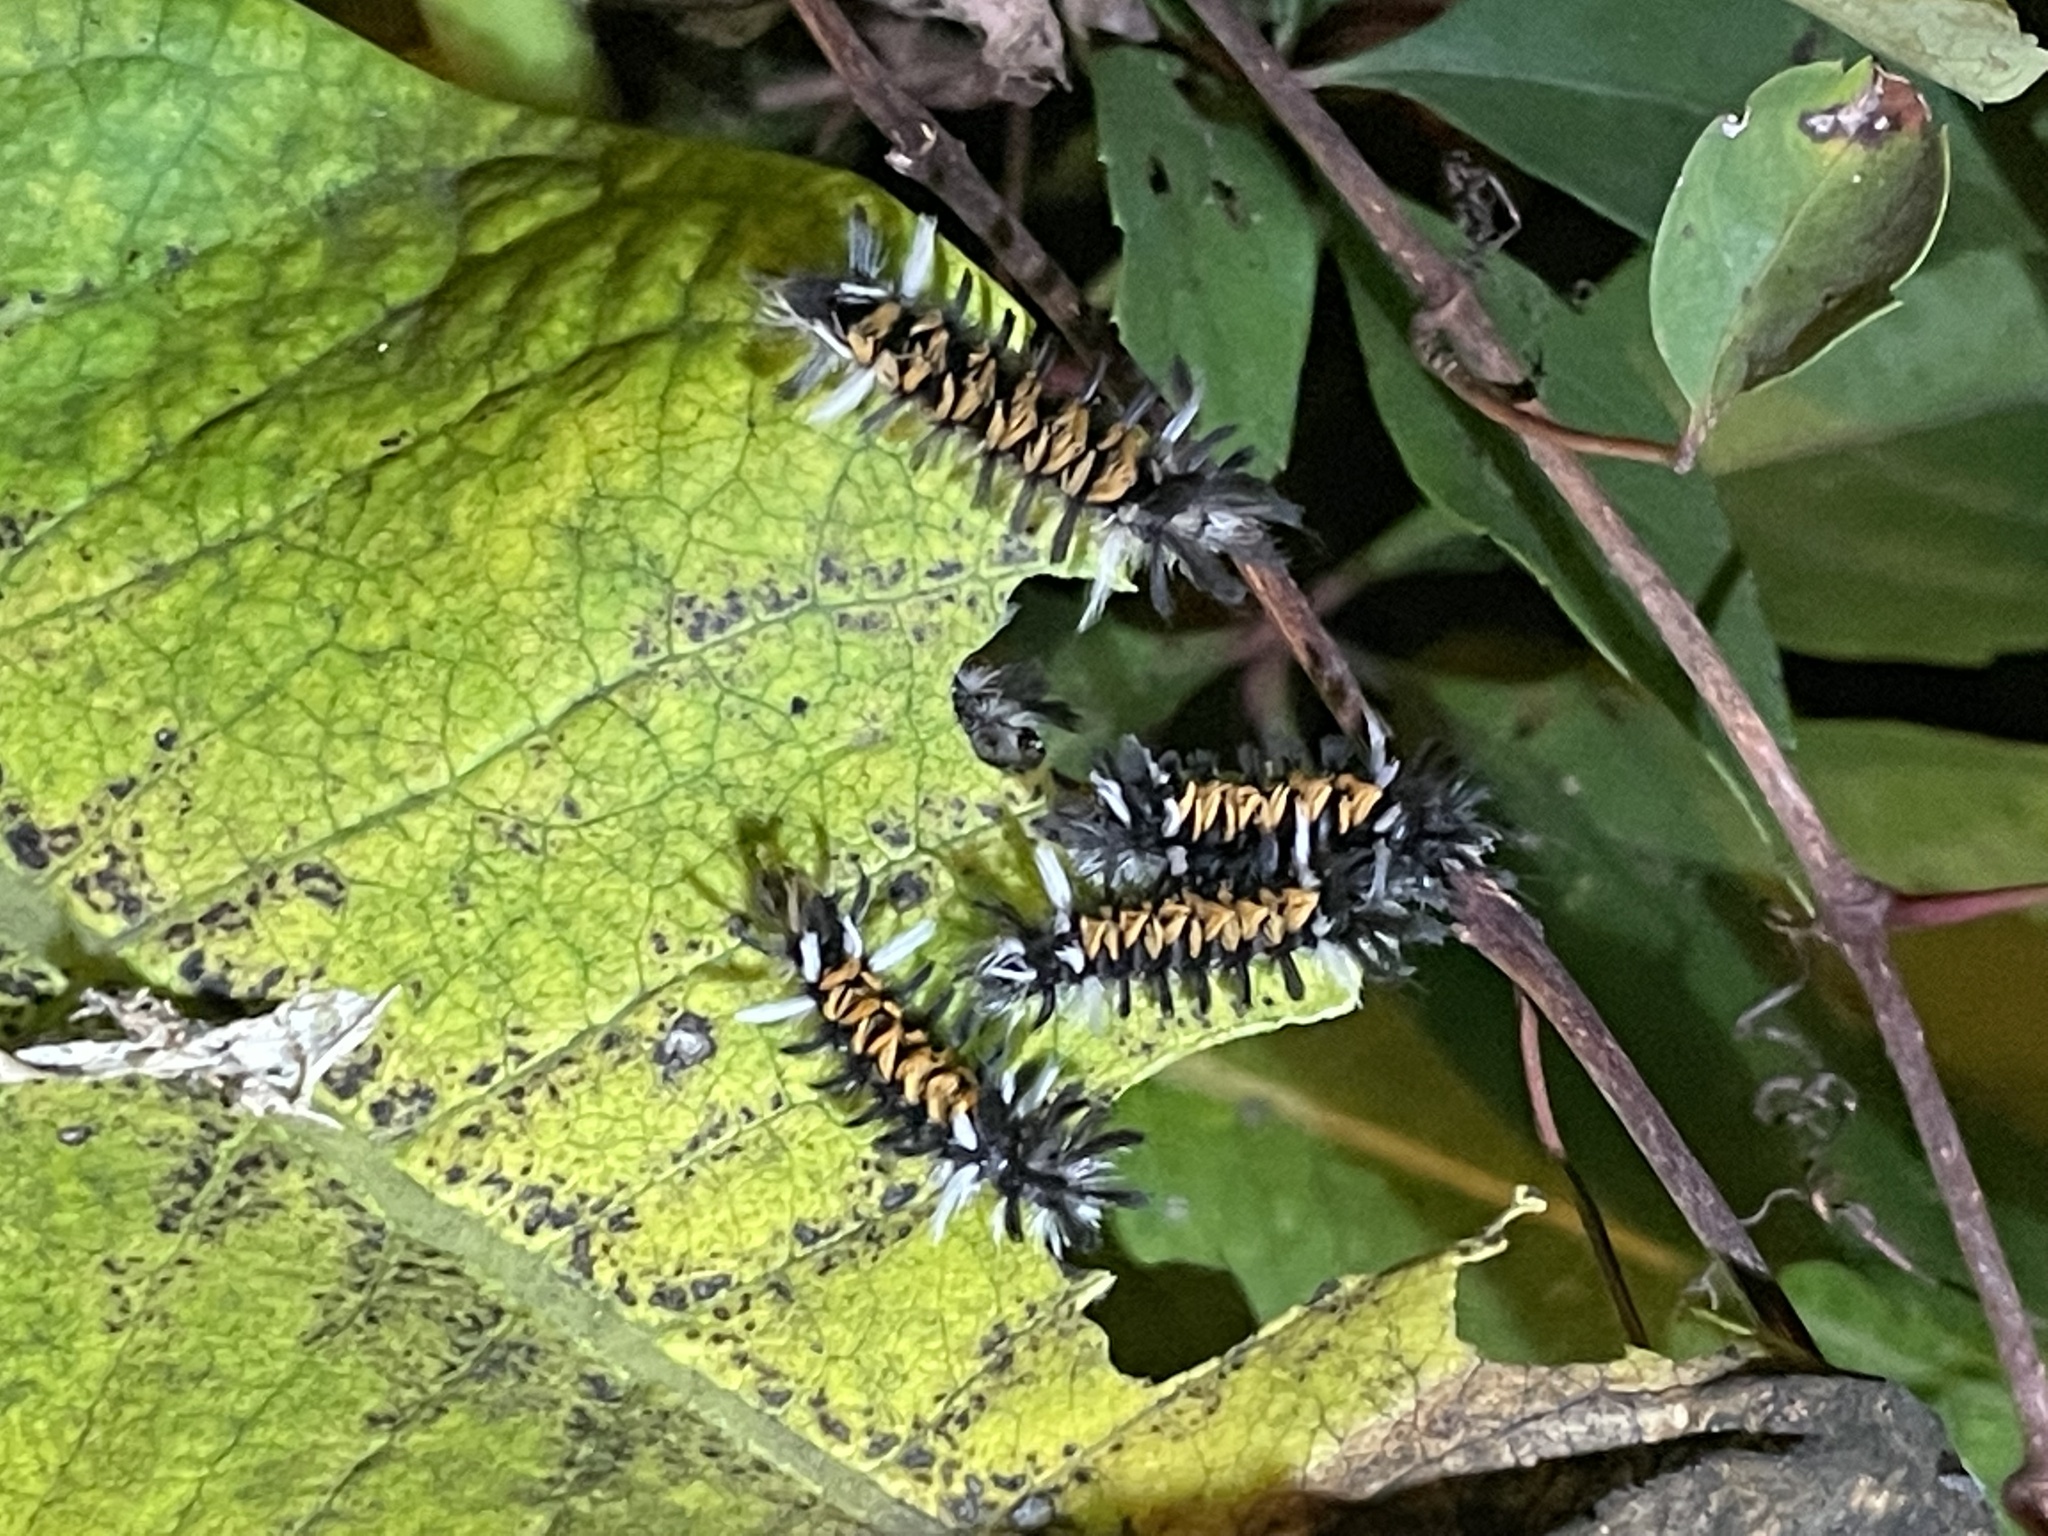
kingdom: Animalia
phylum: Arthropoda
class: Insecta
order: Lepidoptera
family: Erebidae
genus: Euchaetes
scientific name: Euchaetes egle
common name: Milkweed tussock moth
